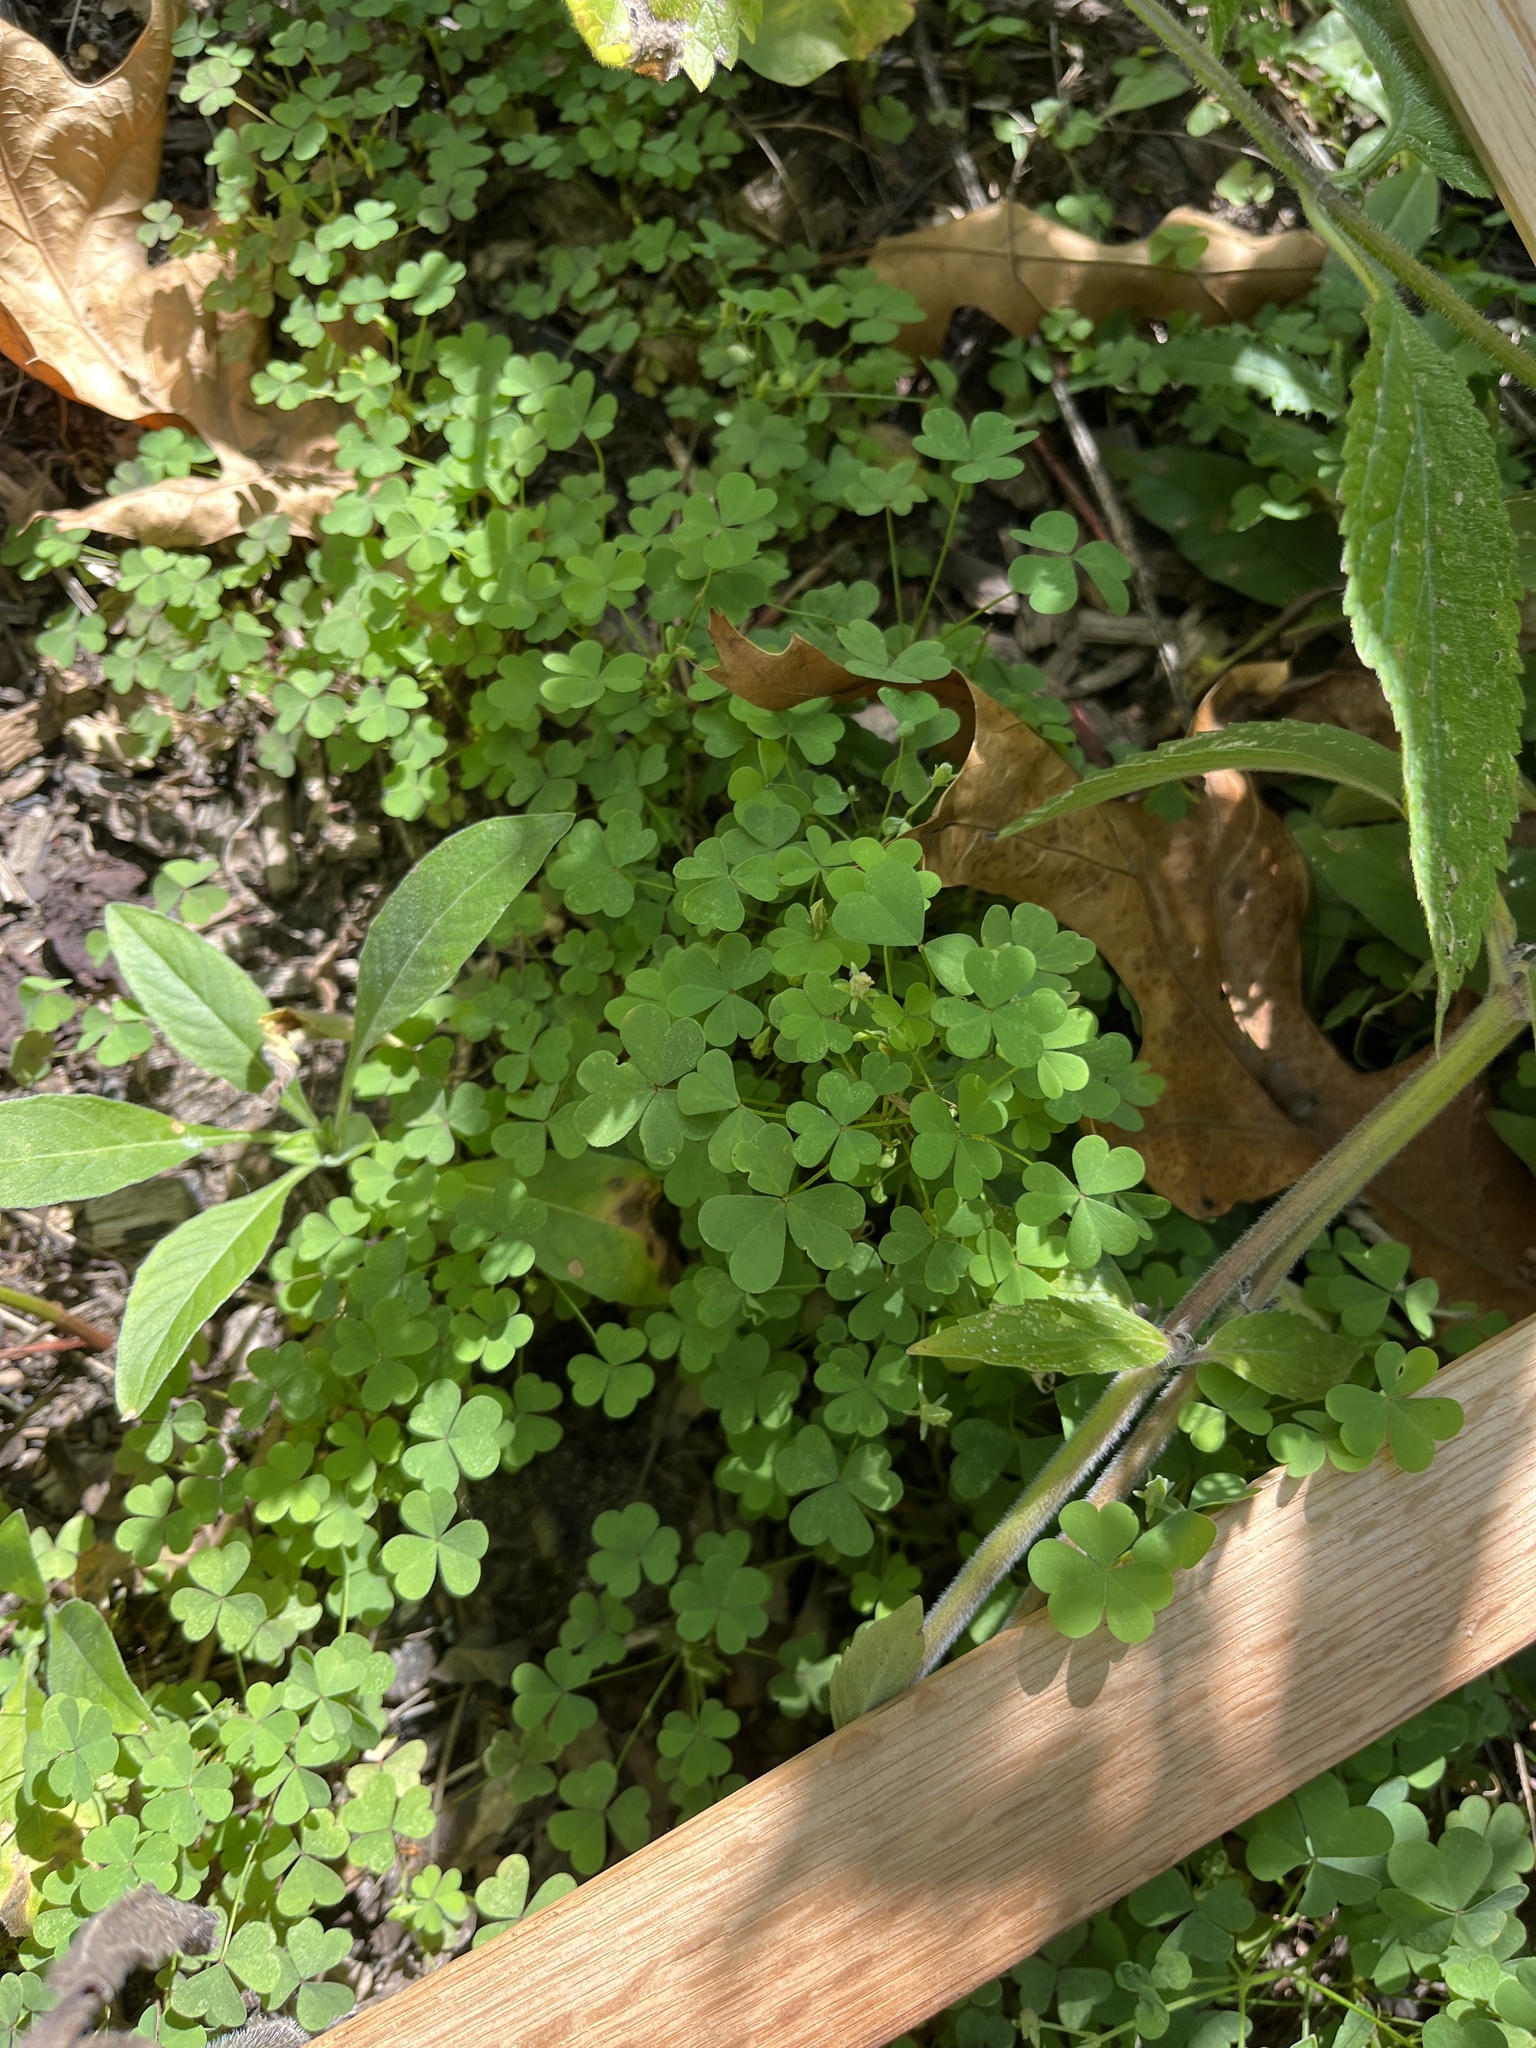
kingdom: Plantae
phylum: Tracheophyta
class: Magnoliopsida
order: Oxalidales
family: Oxalidaceae
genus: Oxalis
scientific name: Oxalis
